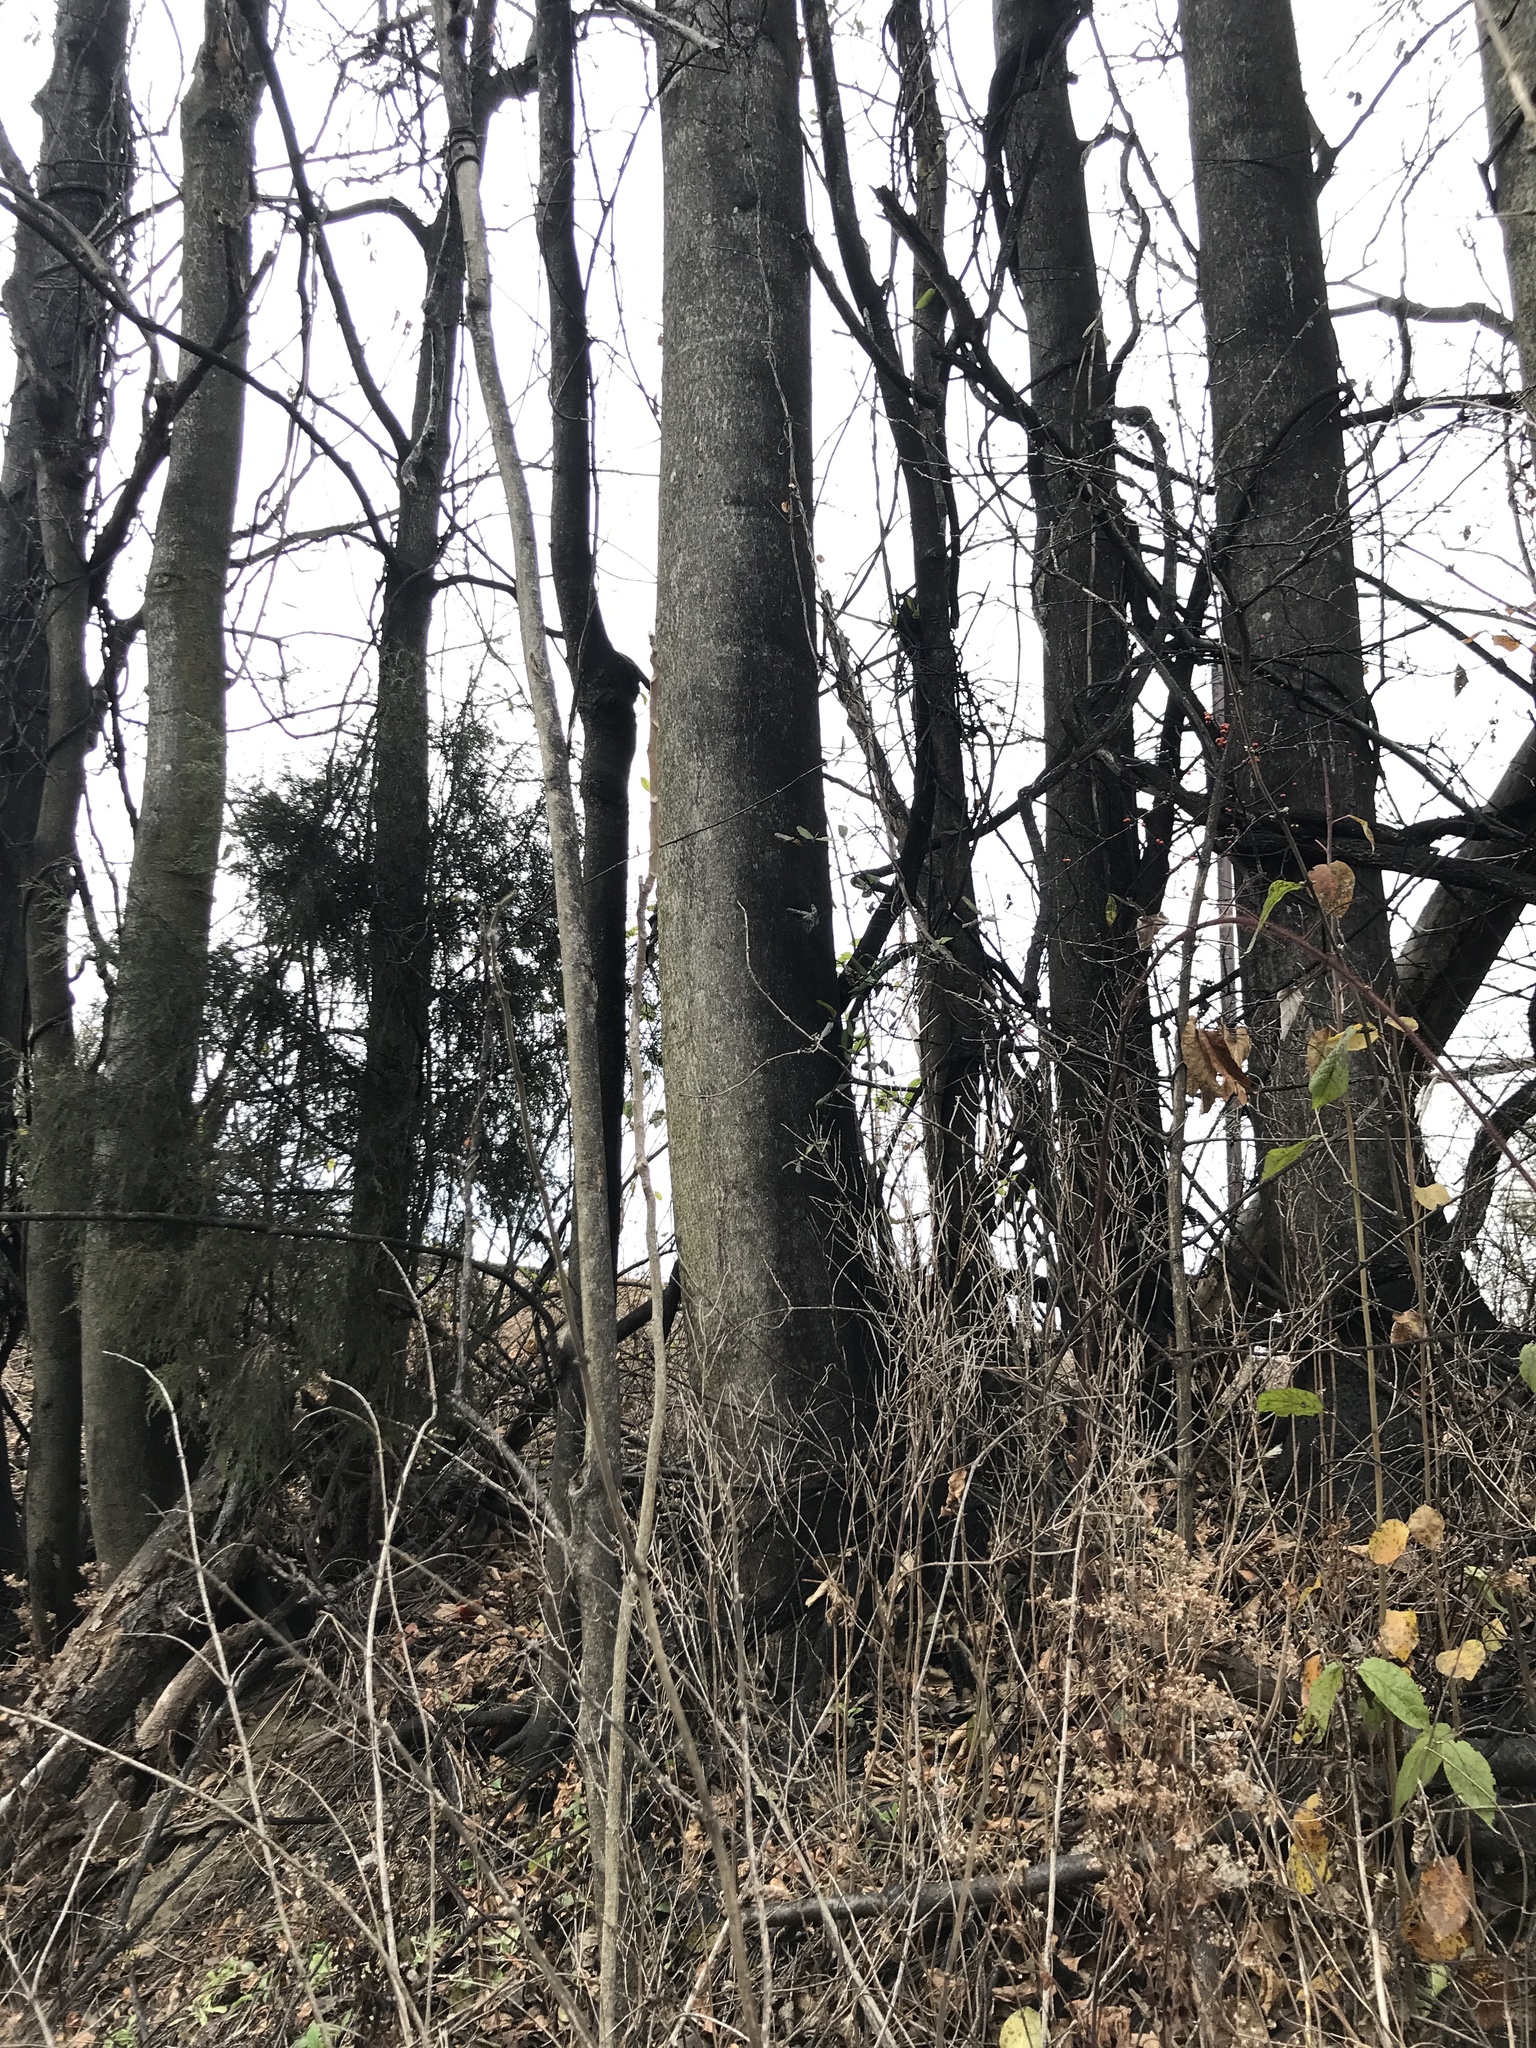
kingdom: Plantae
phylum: Tracheophyta
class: Magnoliopsida
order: Sapindales
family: Simaroubaceae
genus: Ailanthus
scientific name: Ailanthus altissima
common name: Tree-of-heaven
